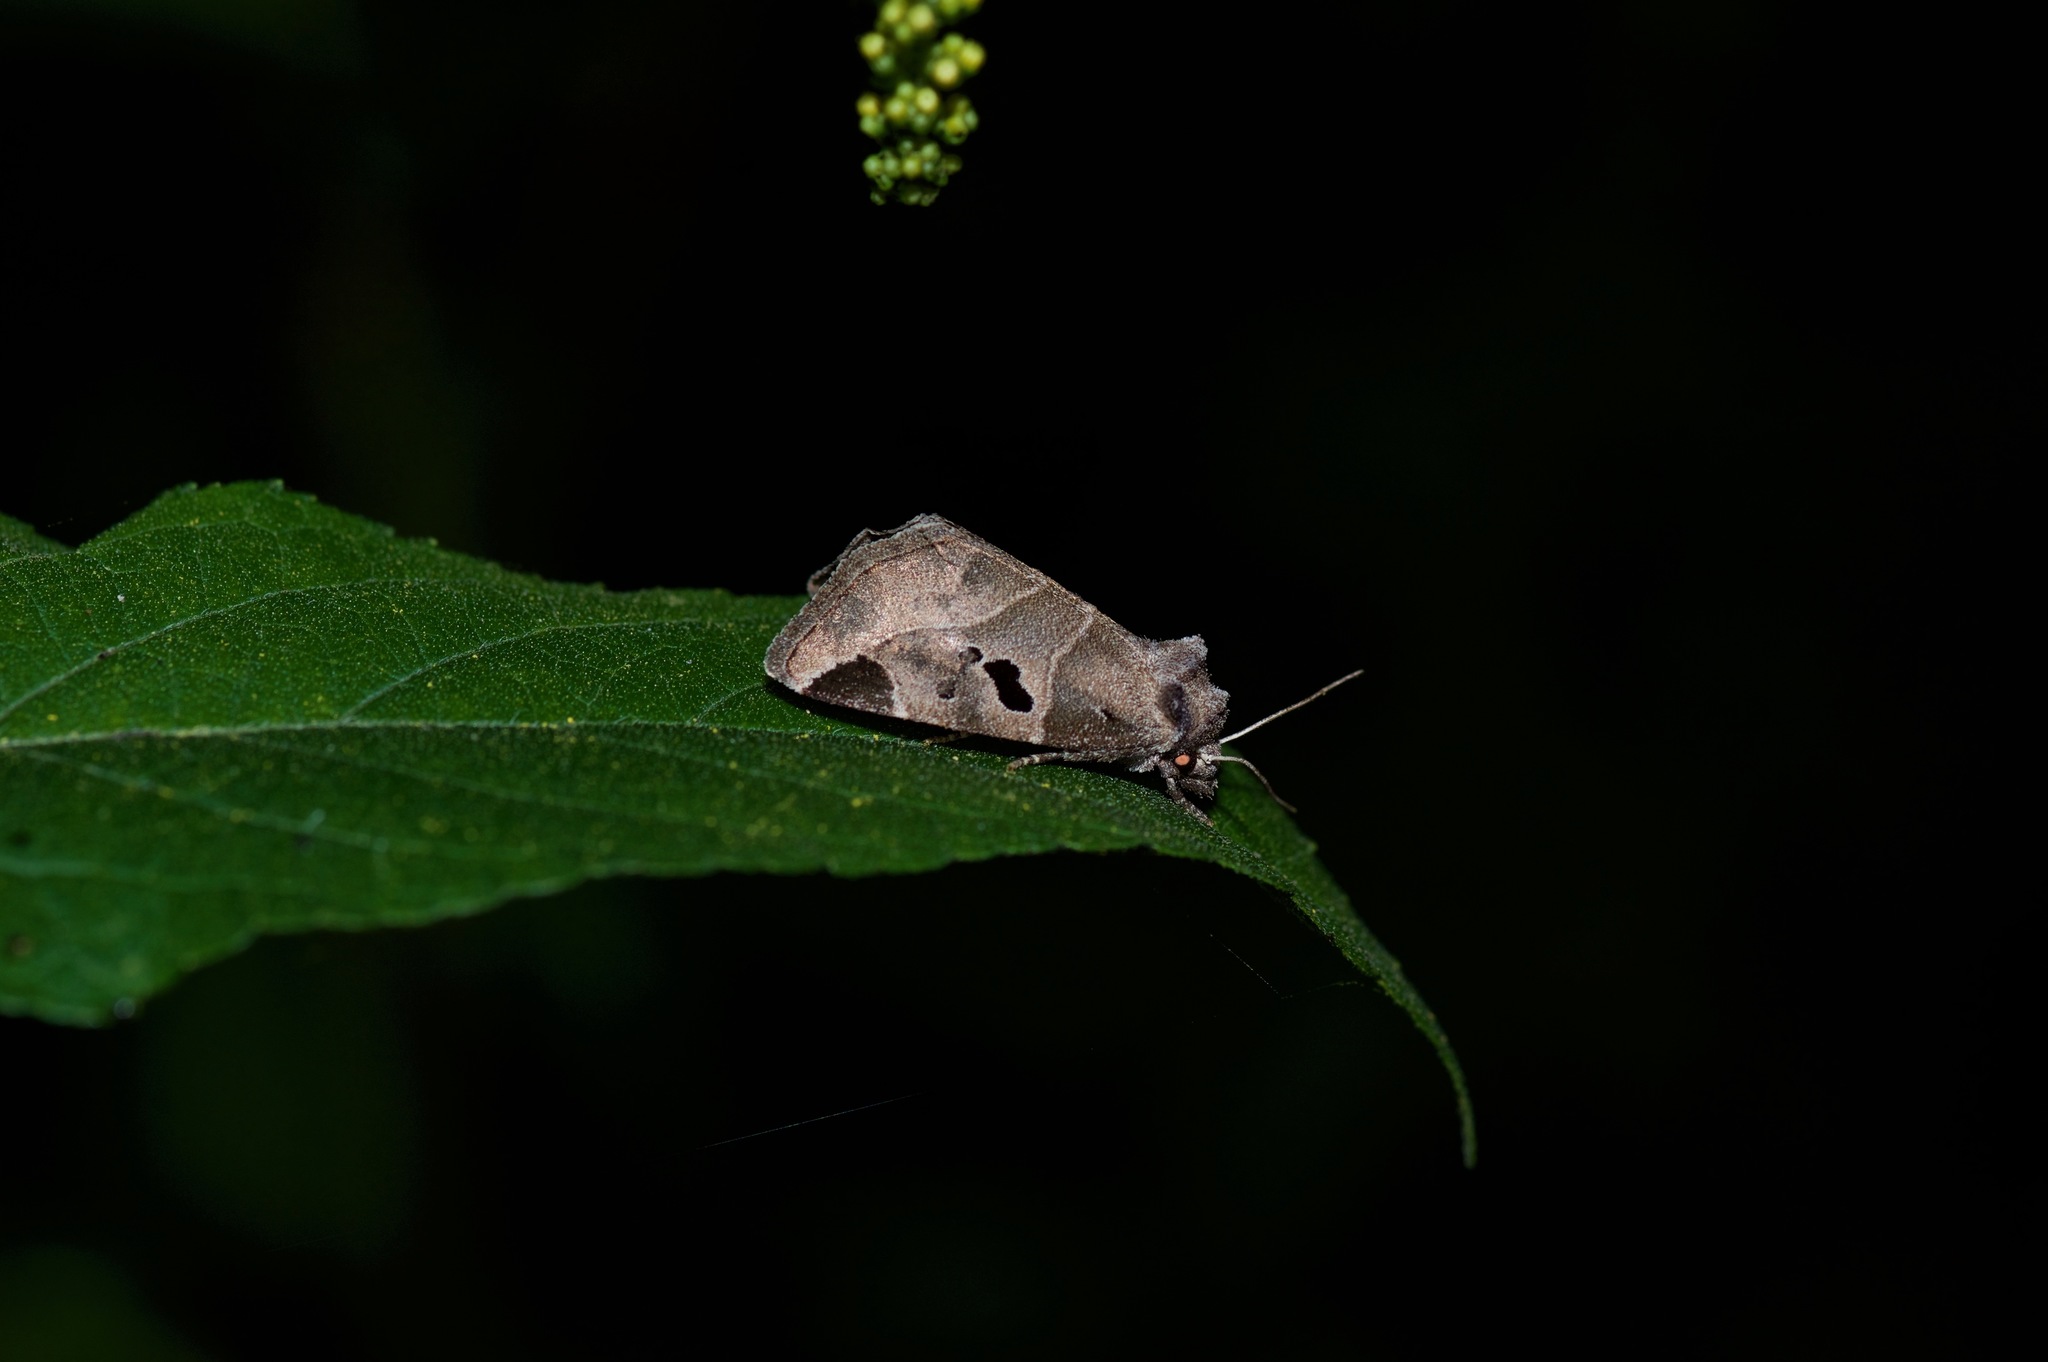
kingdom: Animalia
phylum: Arthropoda
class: Insecta
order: Lepidoptera
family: Noctuidae
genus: Plagiomimicus
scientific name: Plagiomimicus pityochromus
